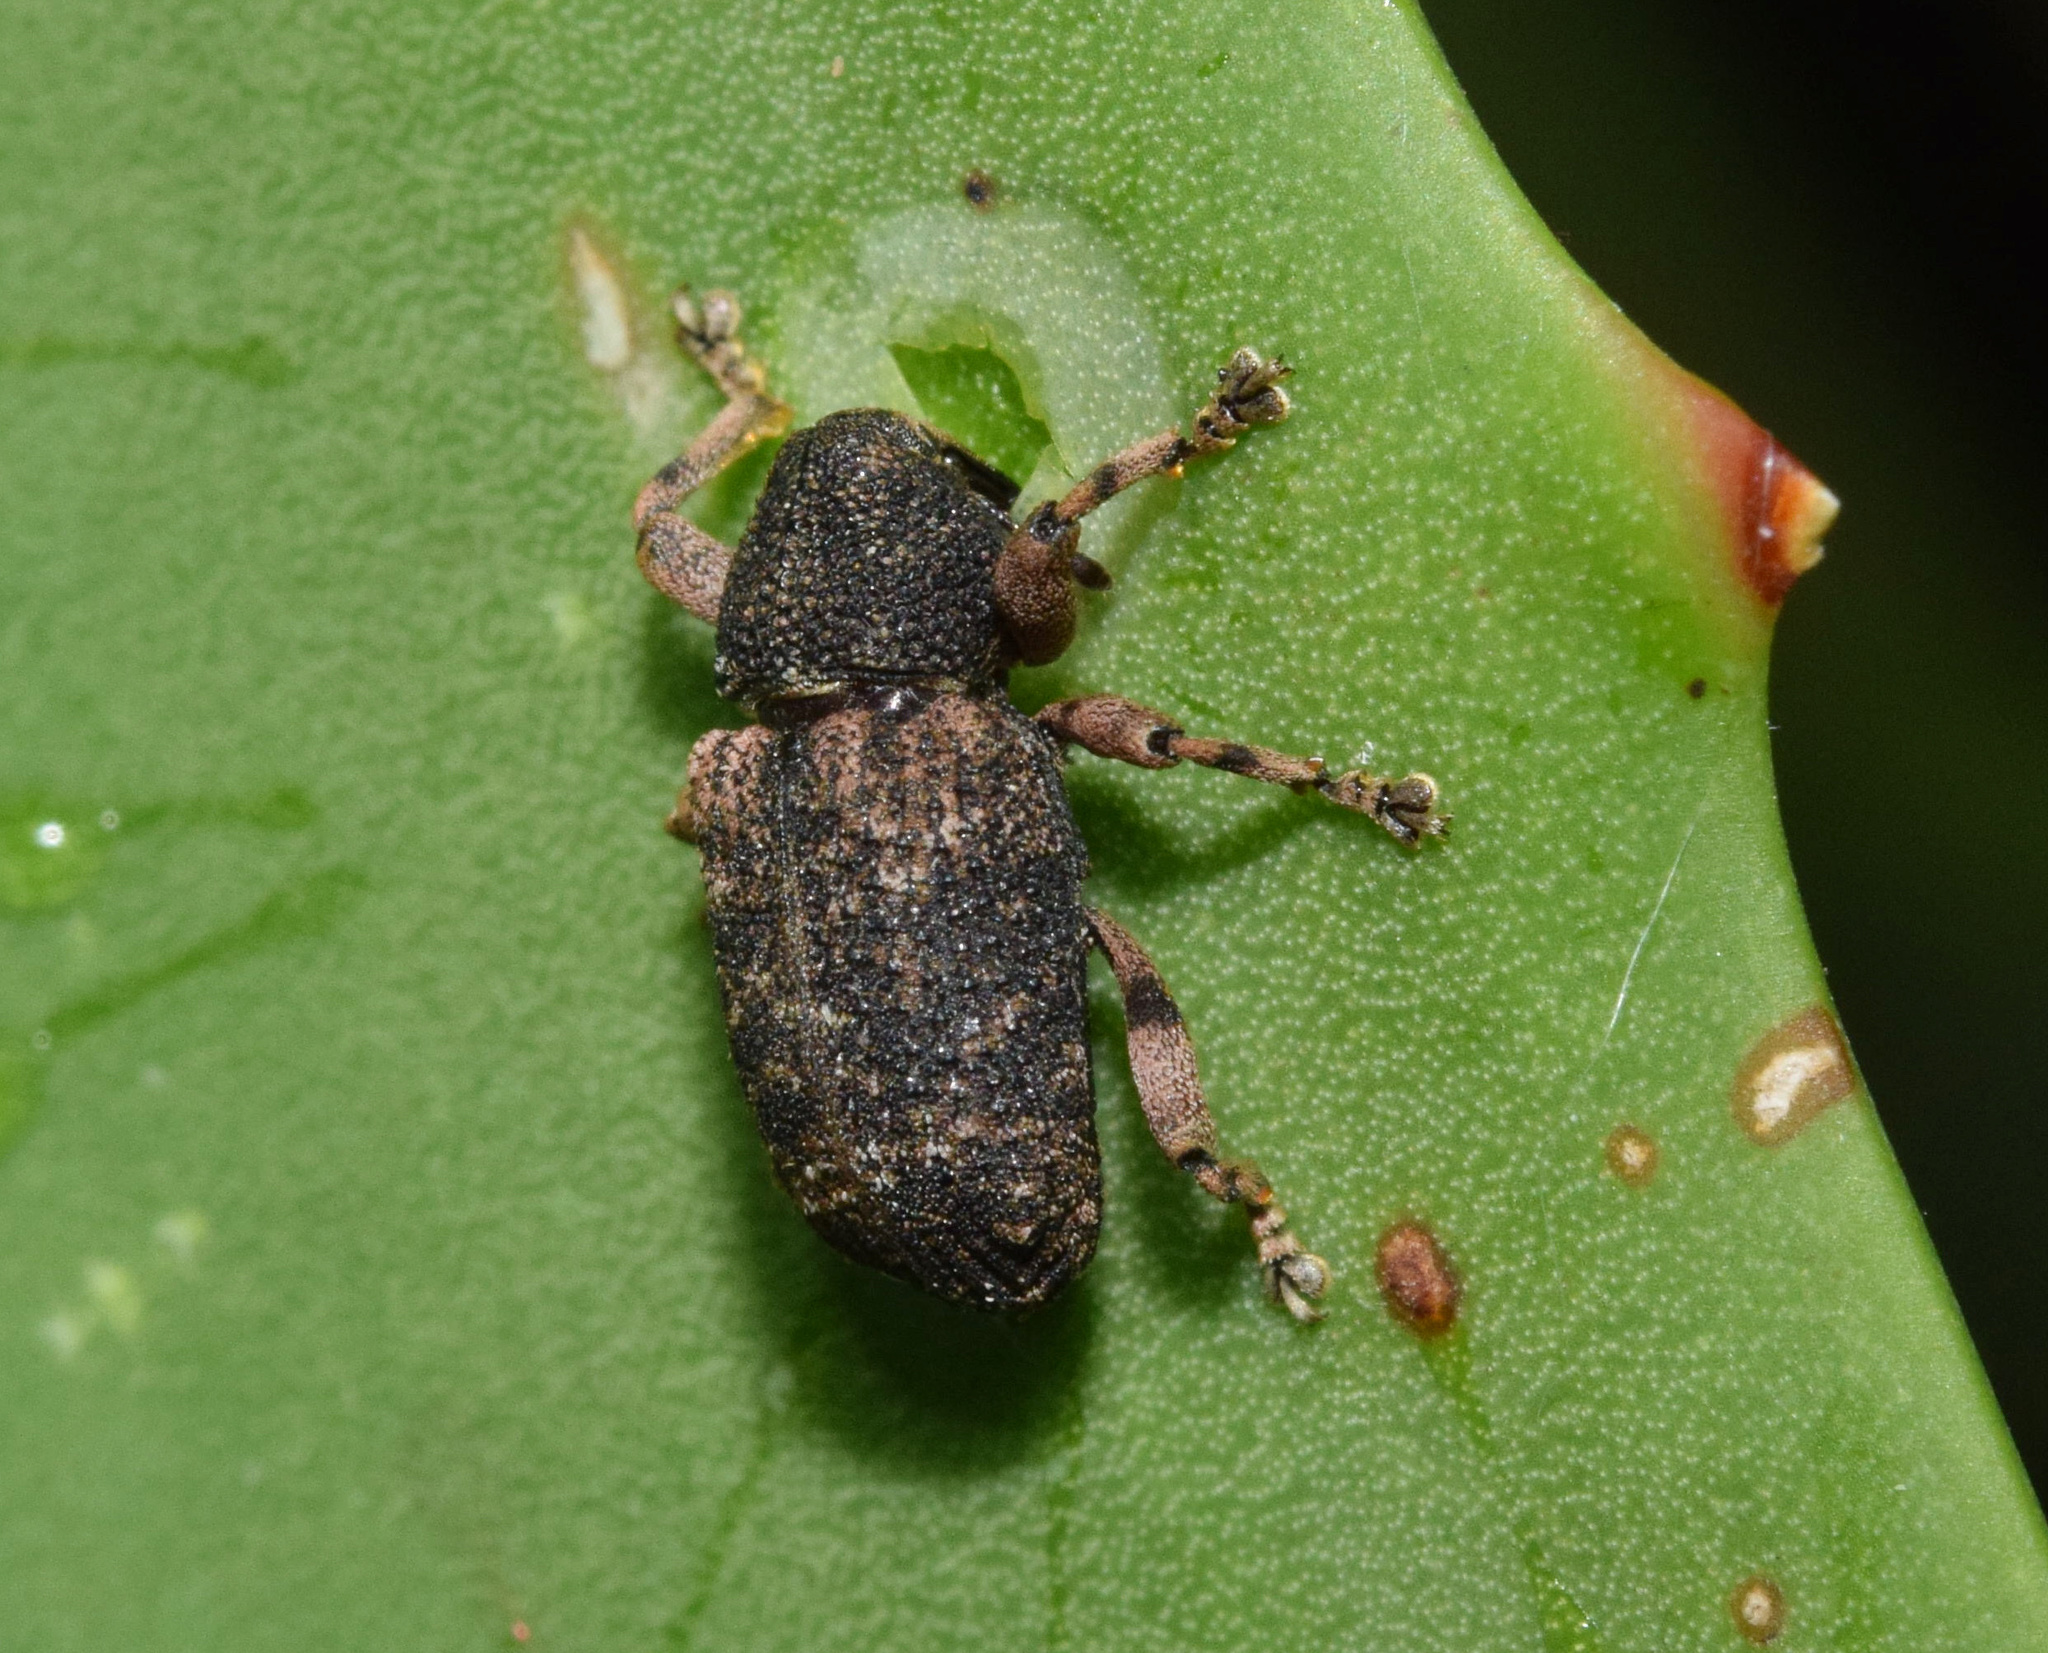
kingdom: Animalia
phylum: Arthropoda
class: Insecta
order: Coleoptera
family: Curculionidae
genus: Rhadinomerus
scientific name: Rhadinomerus
